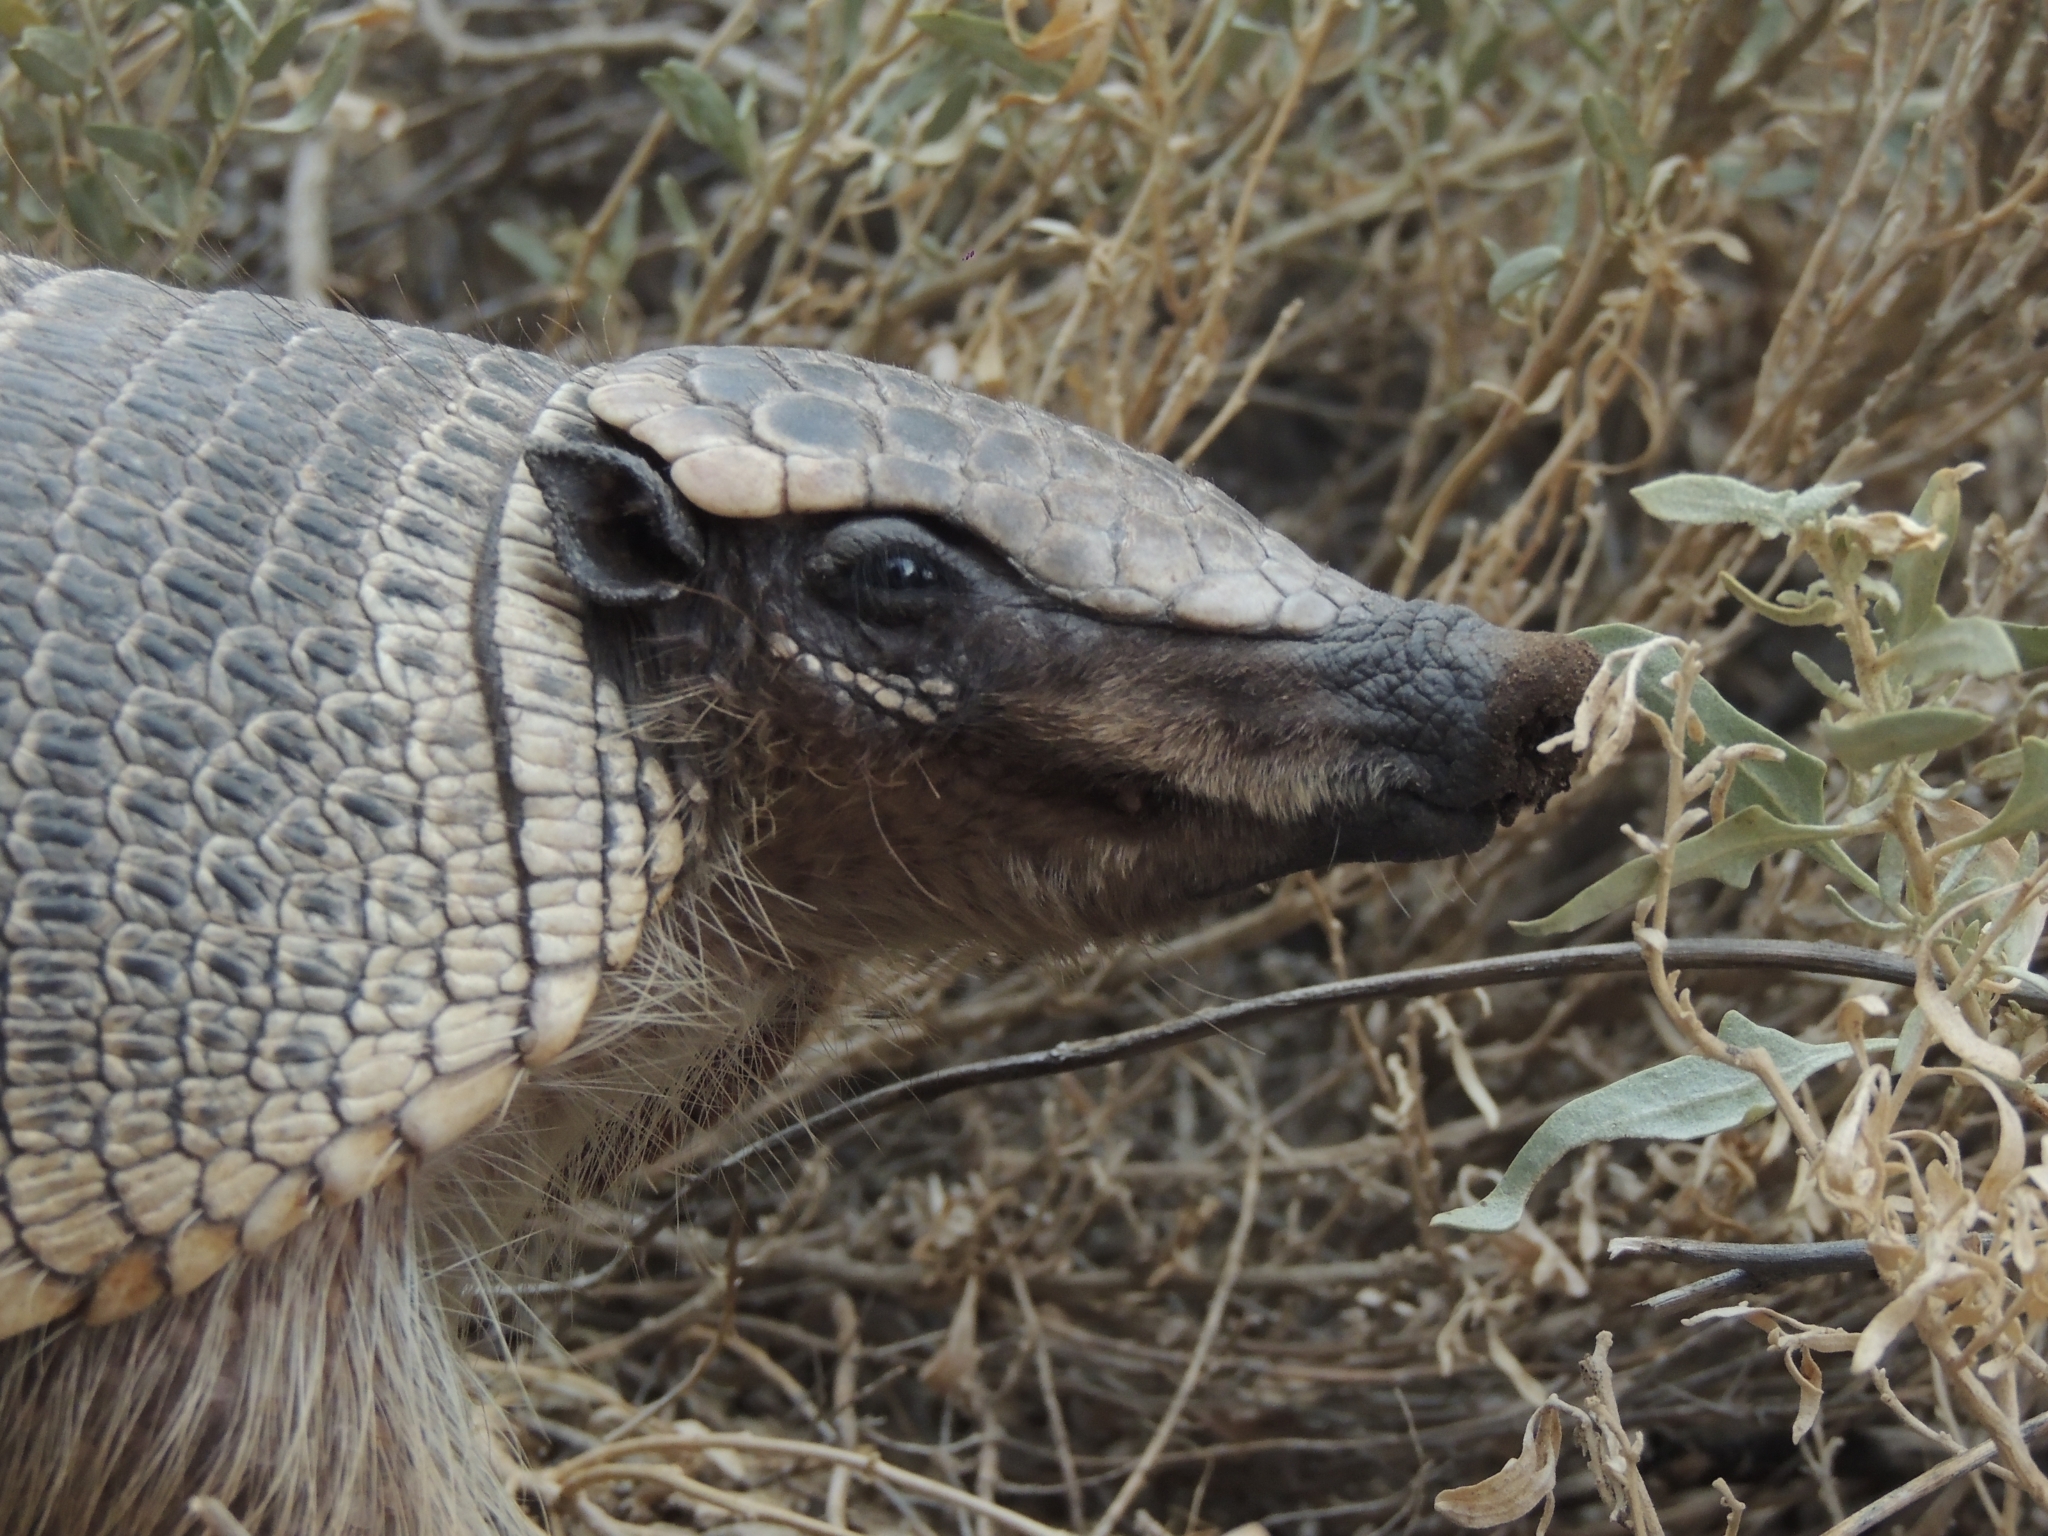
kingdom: Animalia
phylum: Chordata
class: Mammalia
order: Cingulata
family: Dasypodidae
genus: Zaedyus
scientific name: Zaedyus pichiy
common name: Pichi
